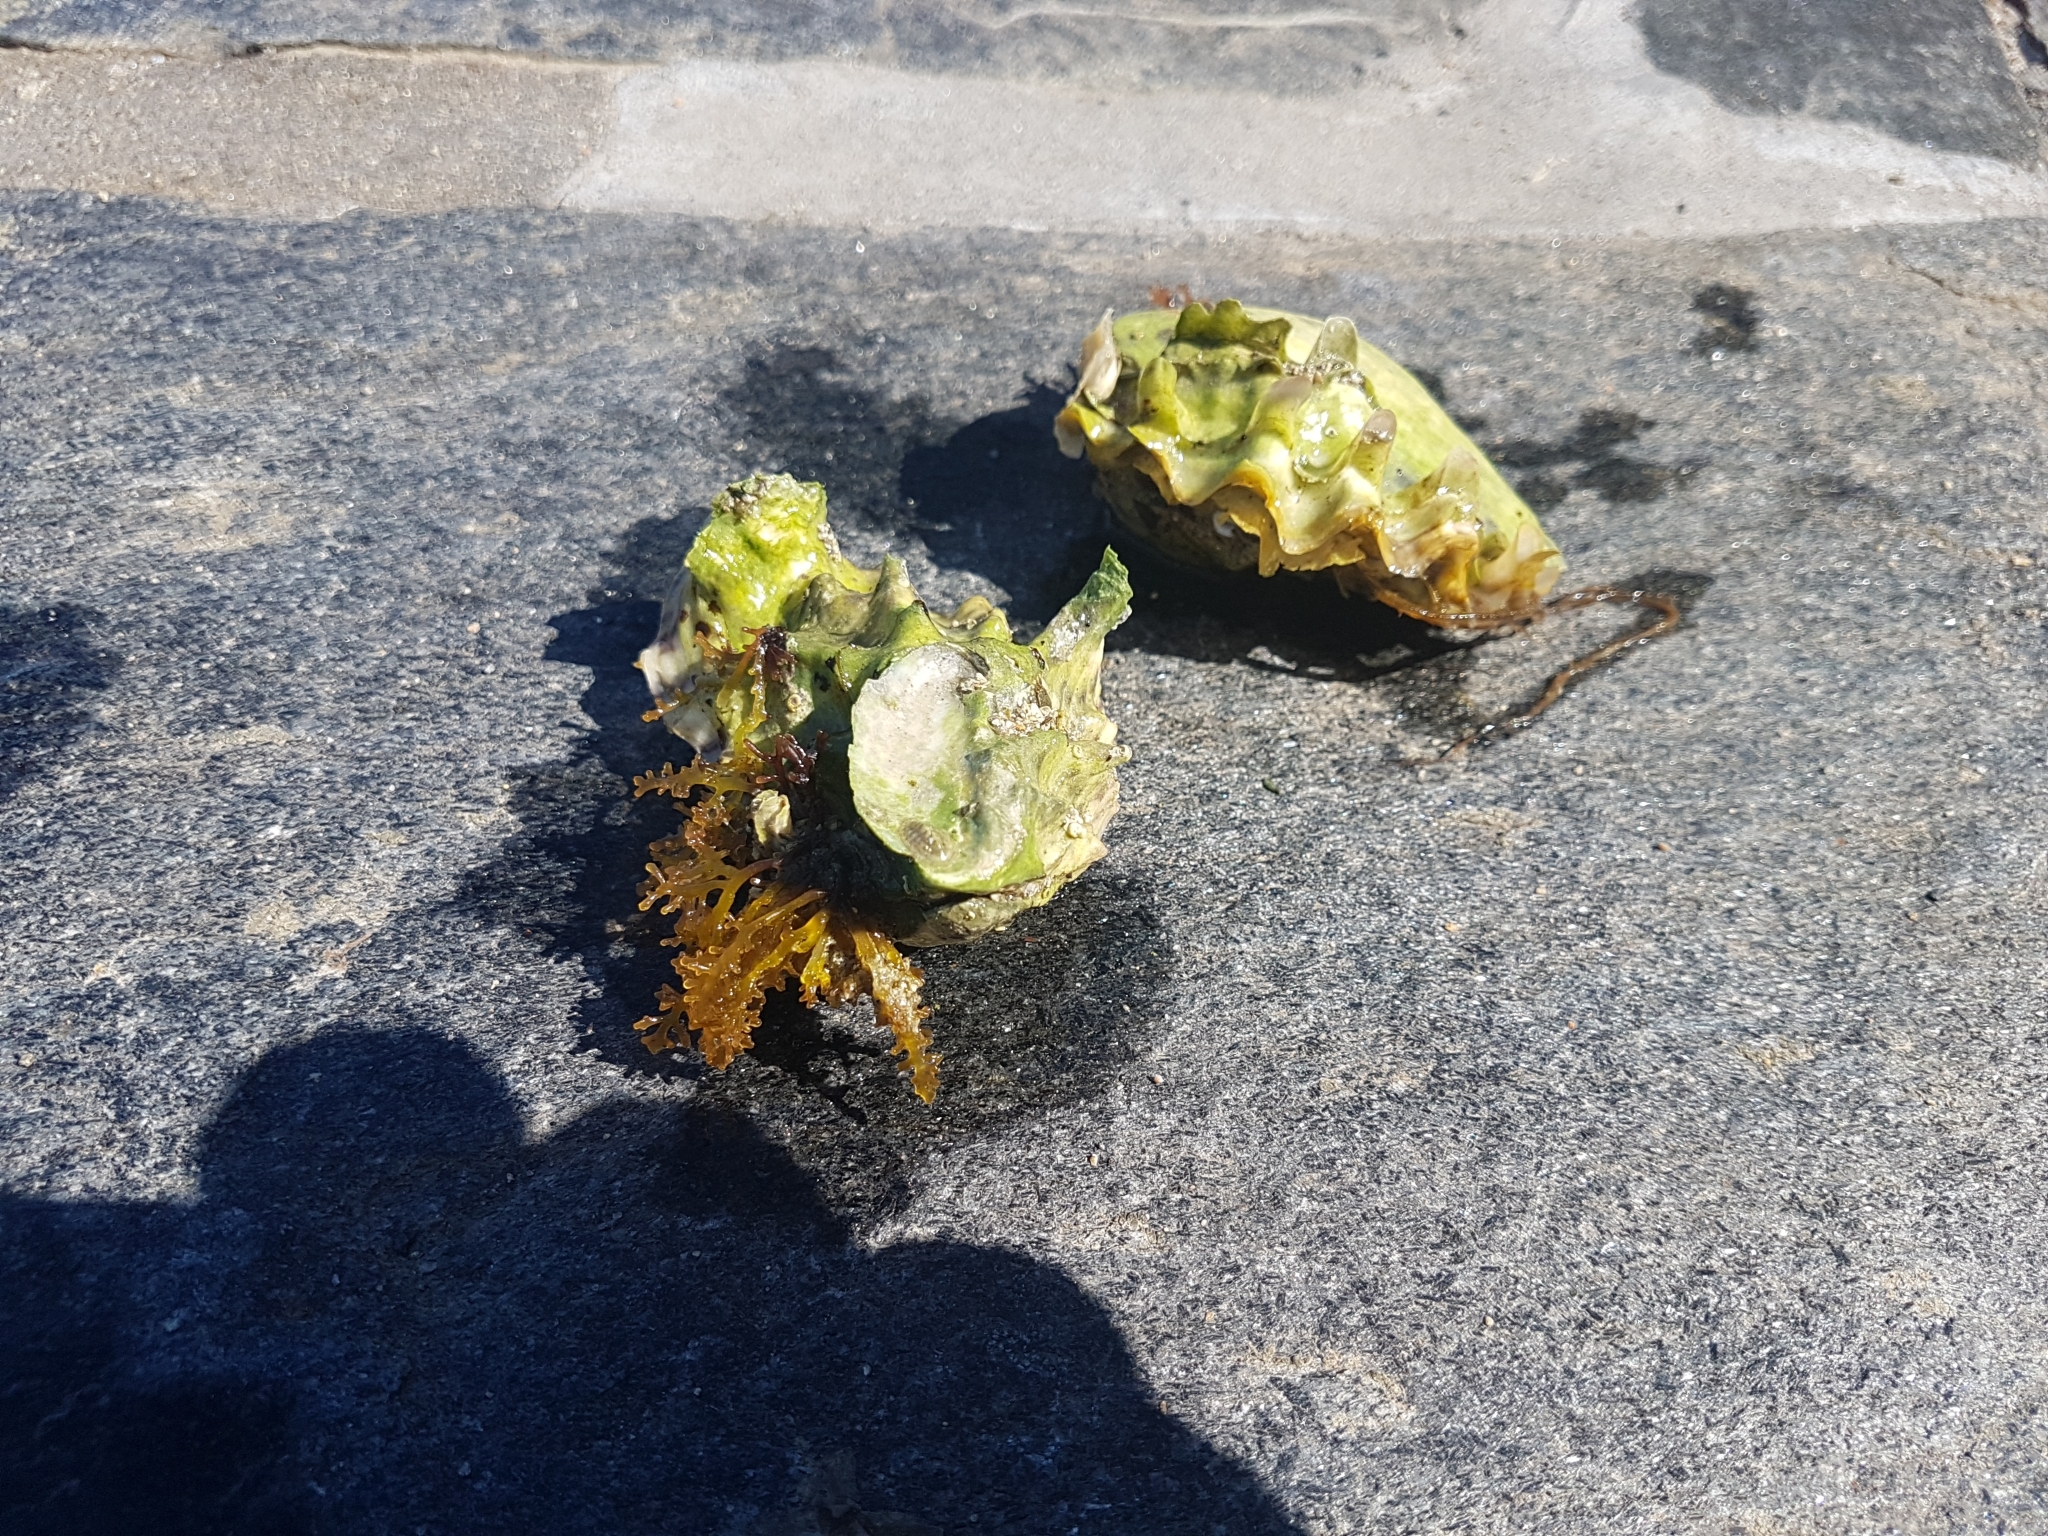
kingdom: Animalia
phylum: Mollusca
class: Bivalvia
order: Ostreida
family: Ostreidae
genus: Magallana
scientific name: Magallana gigas
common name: Pacific oyster
